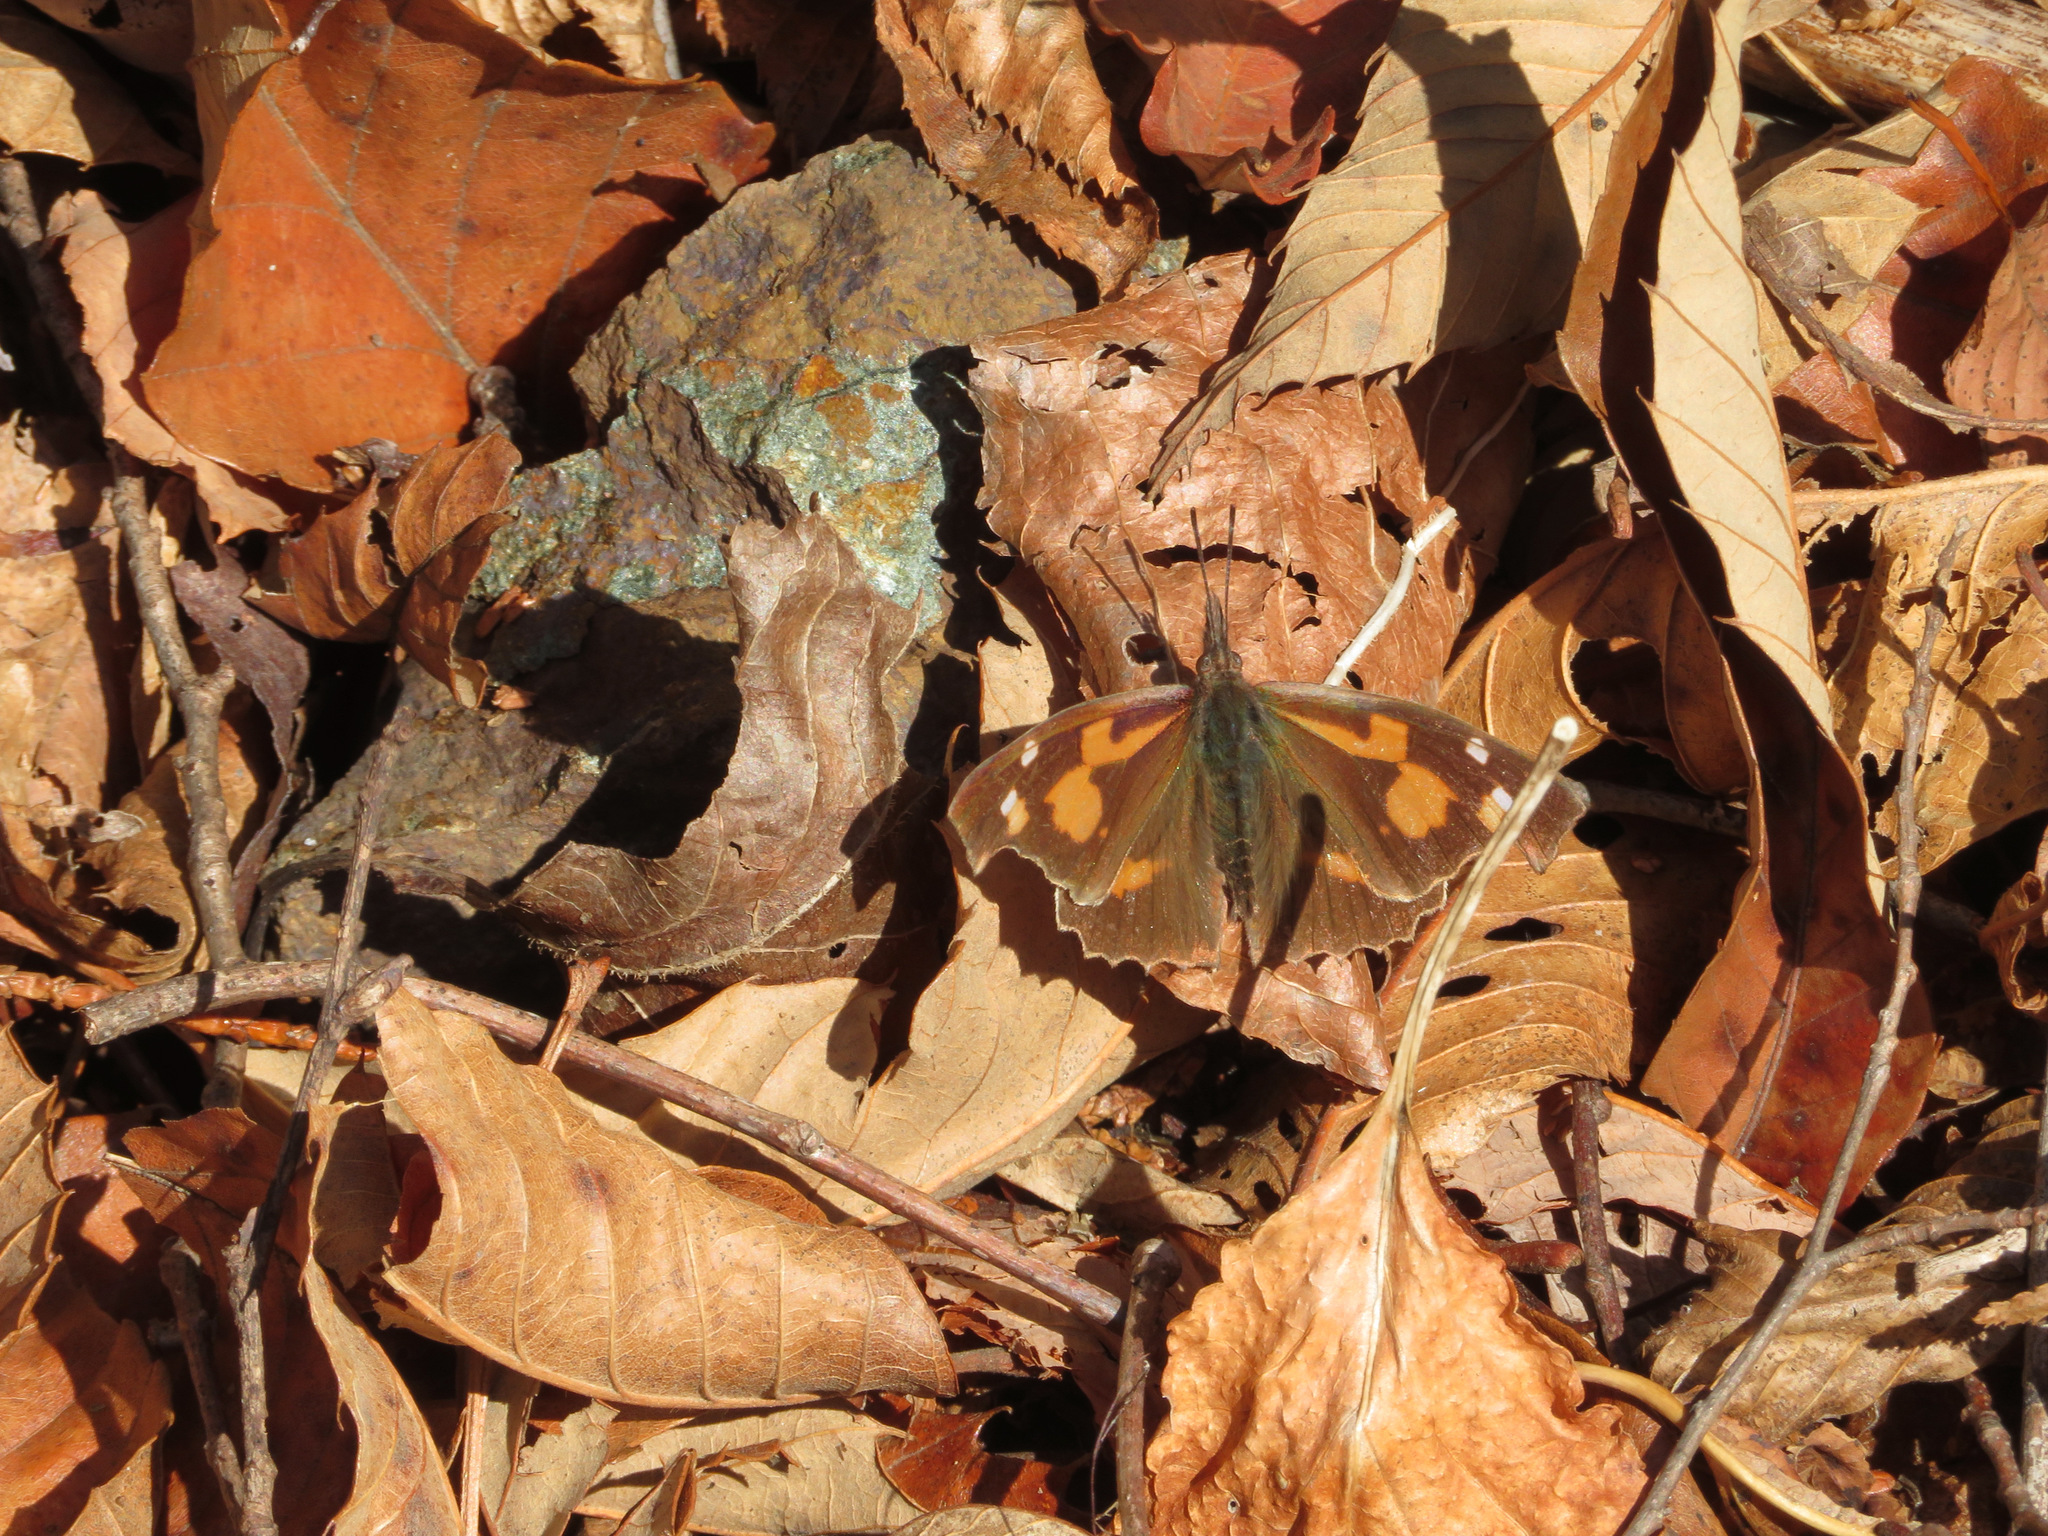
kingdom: Animalia
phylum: Arthropoda
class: Insecta
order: Lepidoptera
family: Nymphalidae
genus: Libythea
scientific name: Libythea lepita
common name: Common beak
